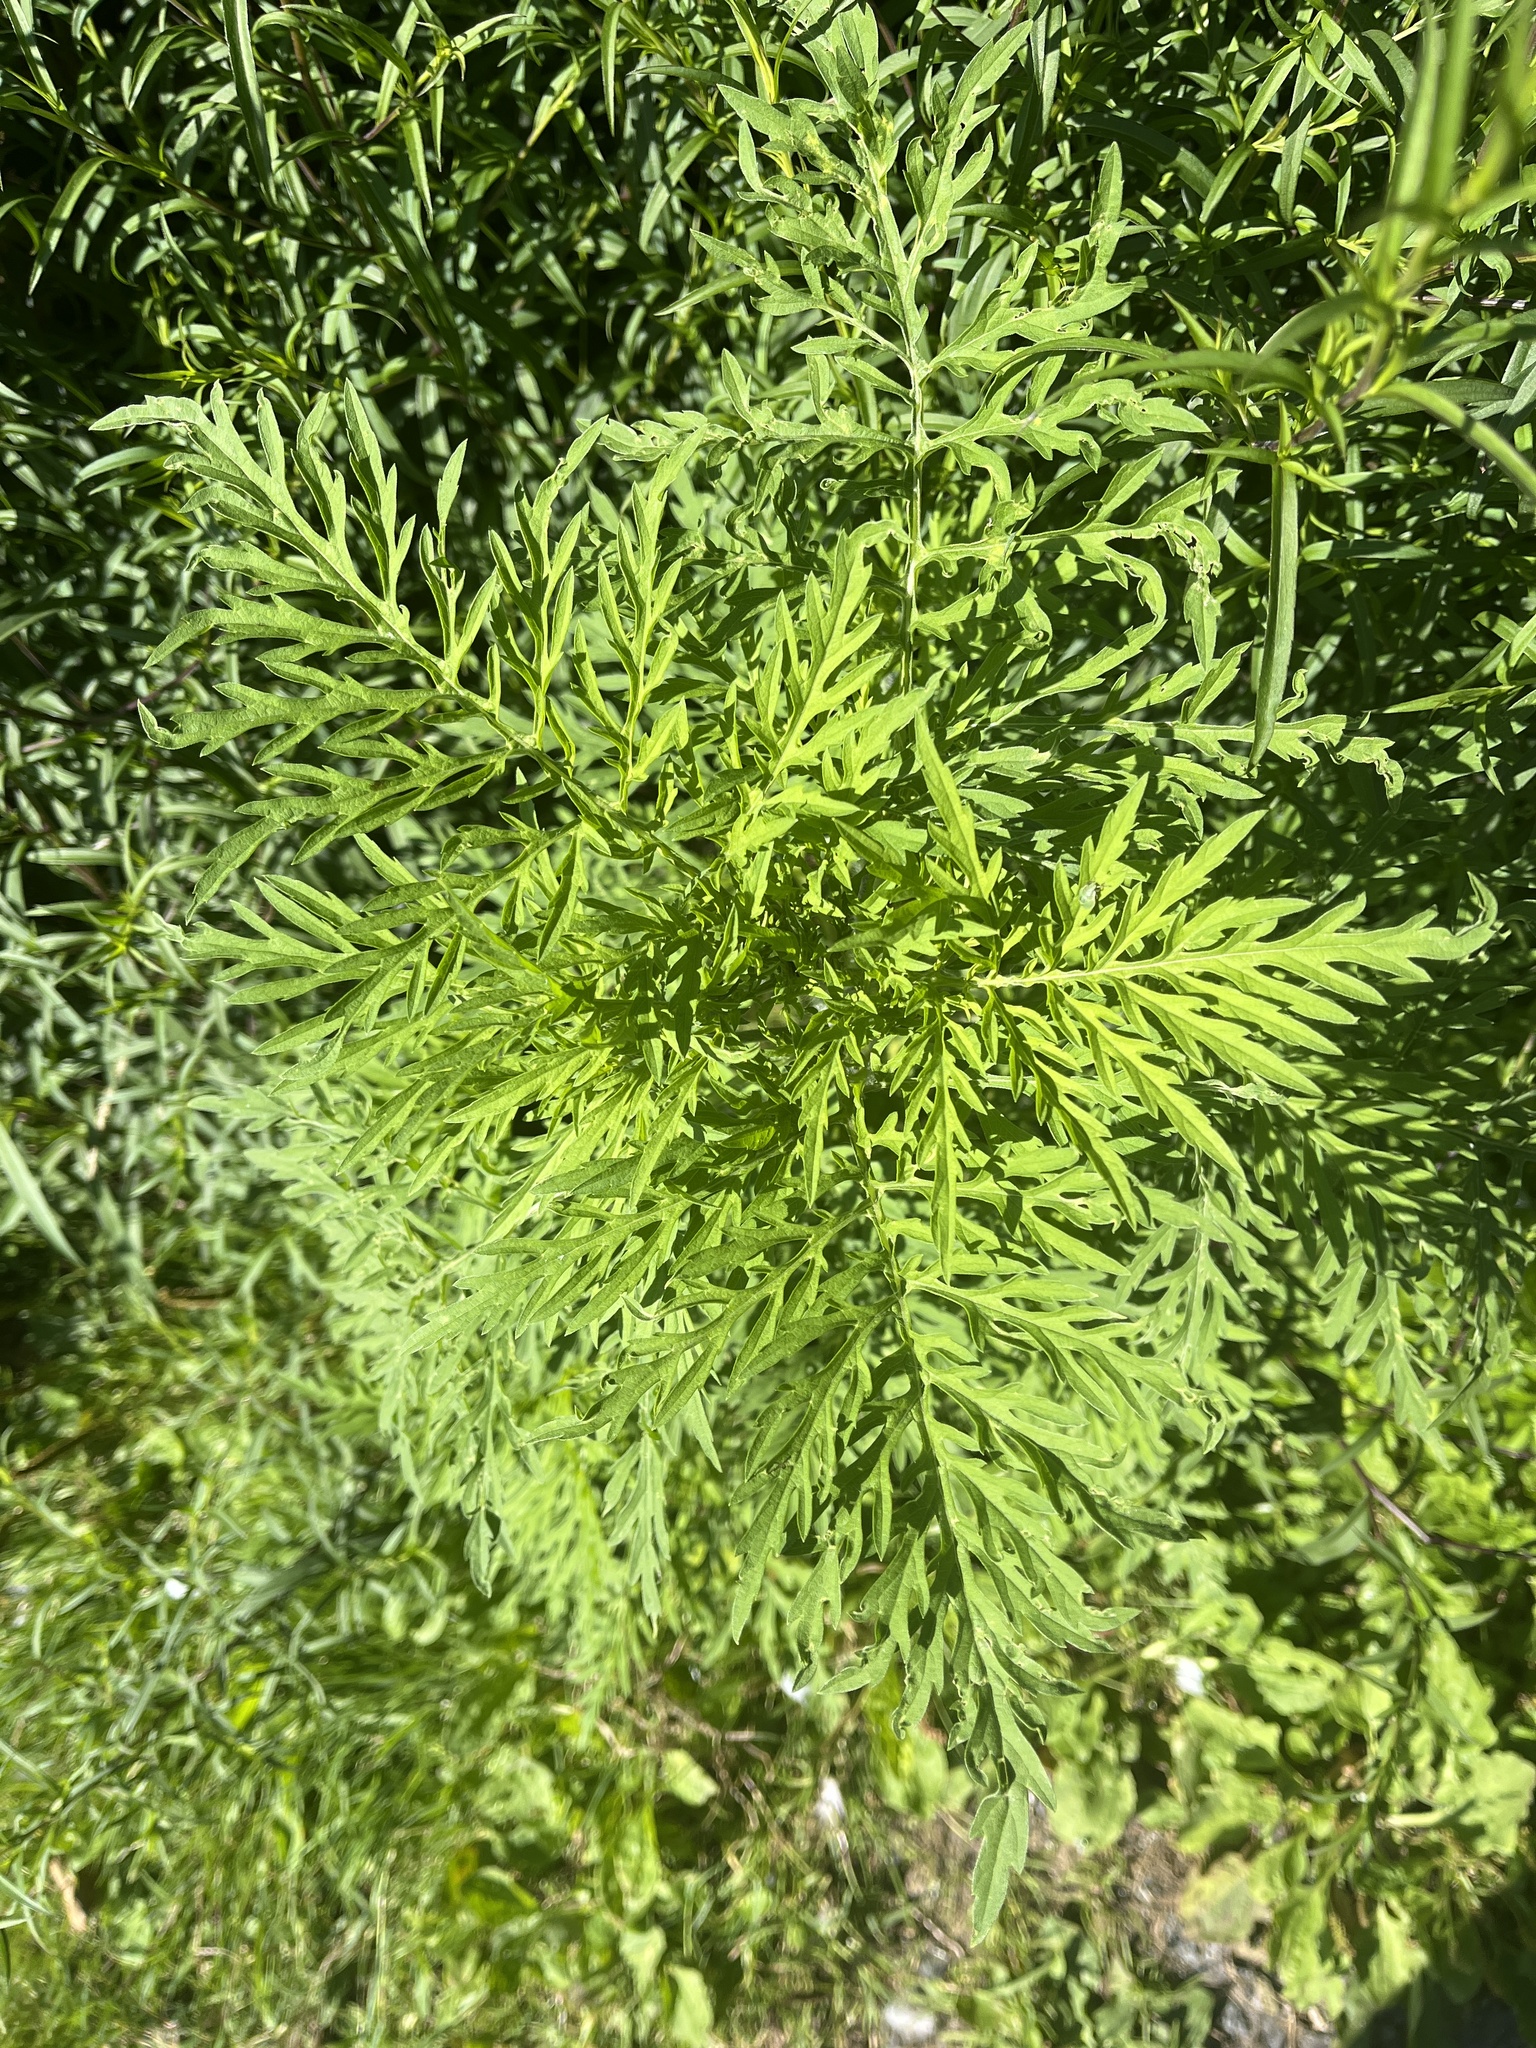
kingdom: Plantae
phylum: Tracheophyta
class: Magnoliopsida
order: Asterales
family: Asteraceae
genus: Ambrosia
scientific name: Ambrosia artemisiifolia
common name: Annual ragweed
